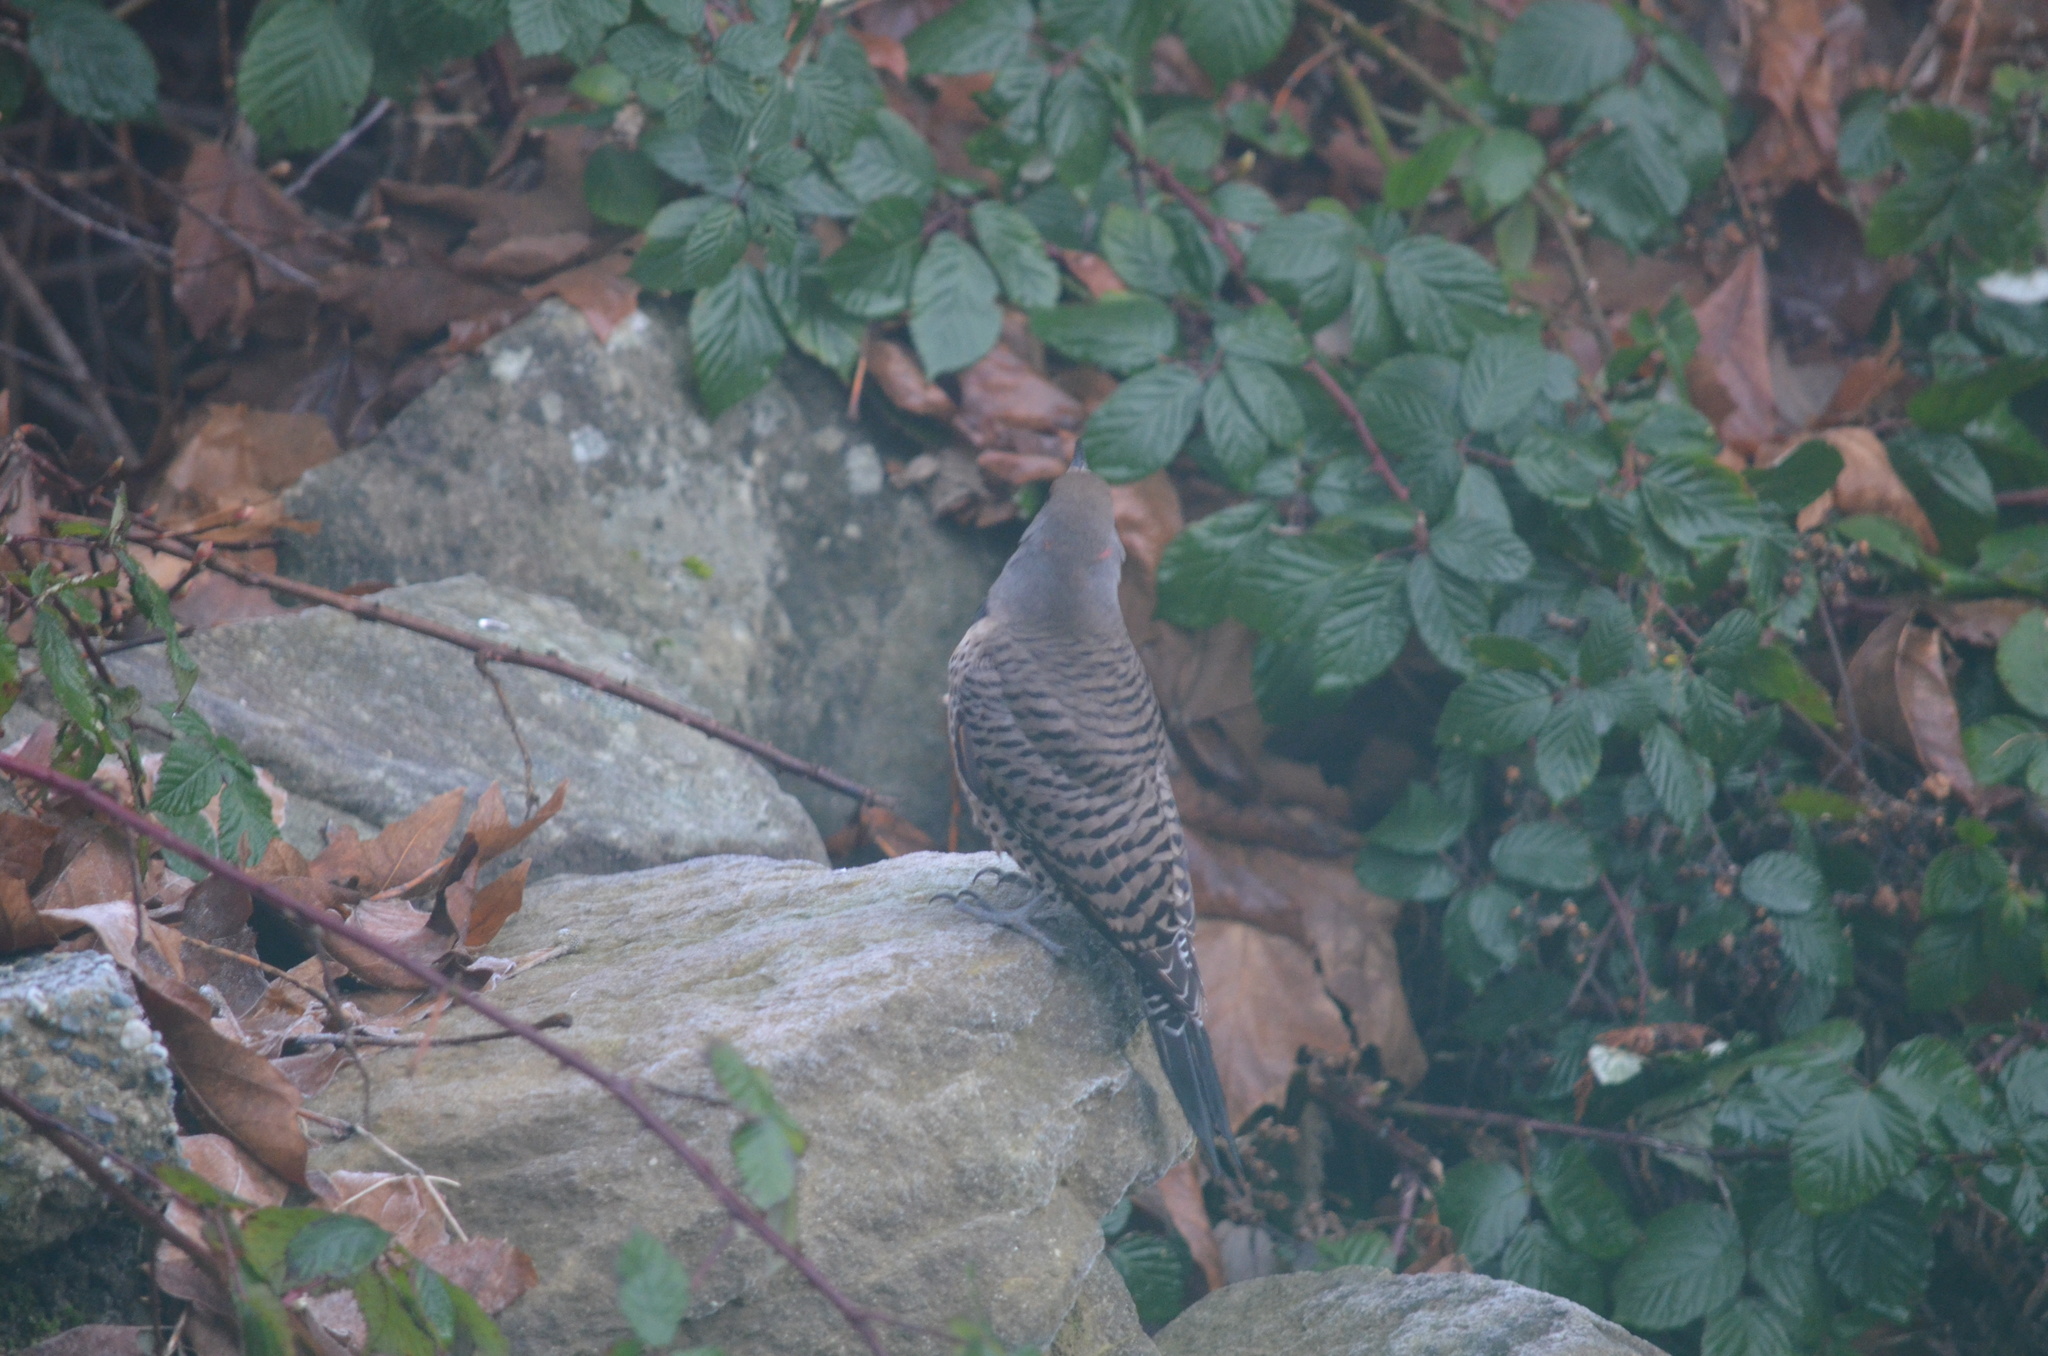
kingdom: Animalia
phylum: Chordata
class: Aves
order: Piciformes
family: Picidae
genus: Colaptes
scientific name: Colaptes auratus
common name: Northern flicker
